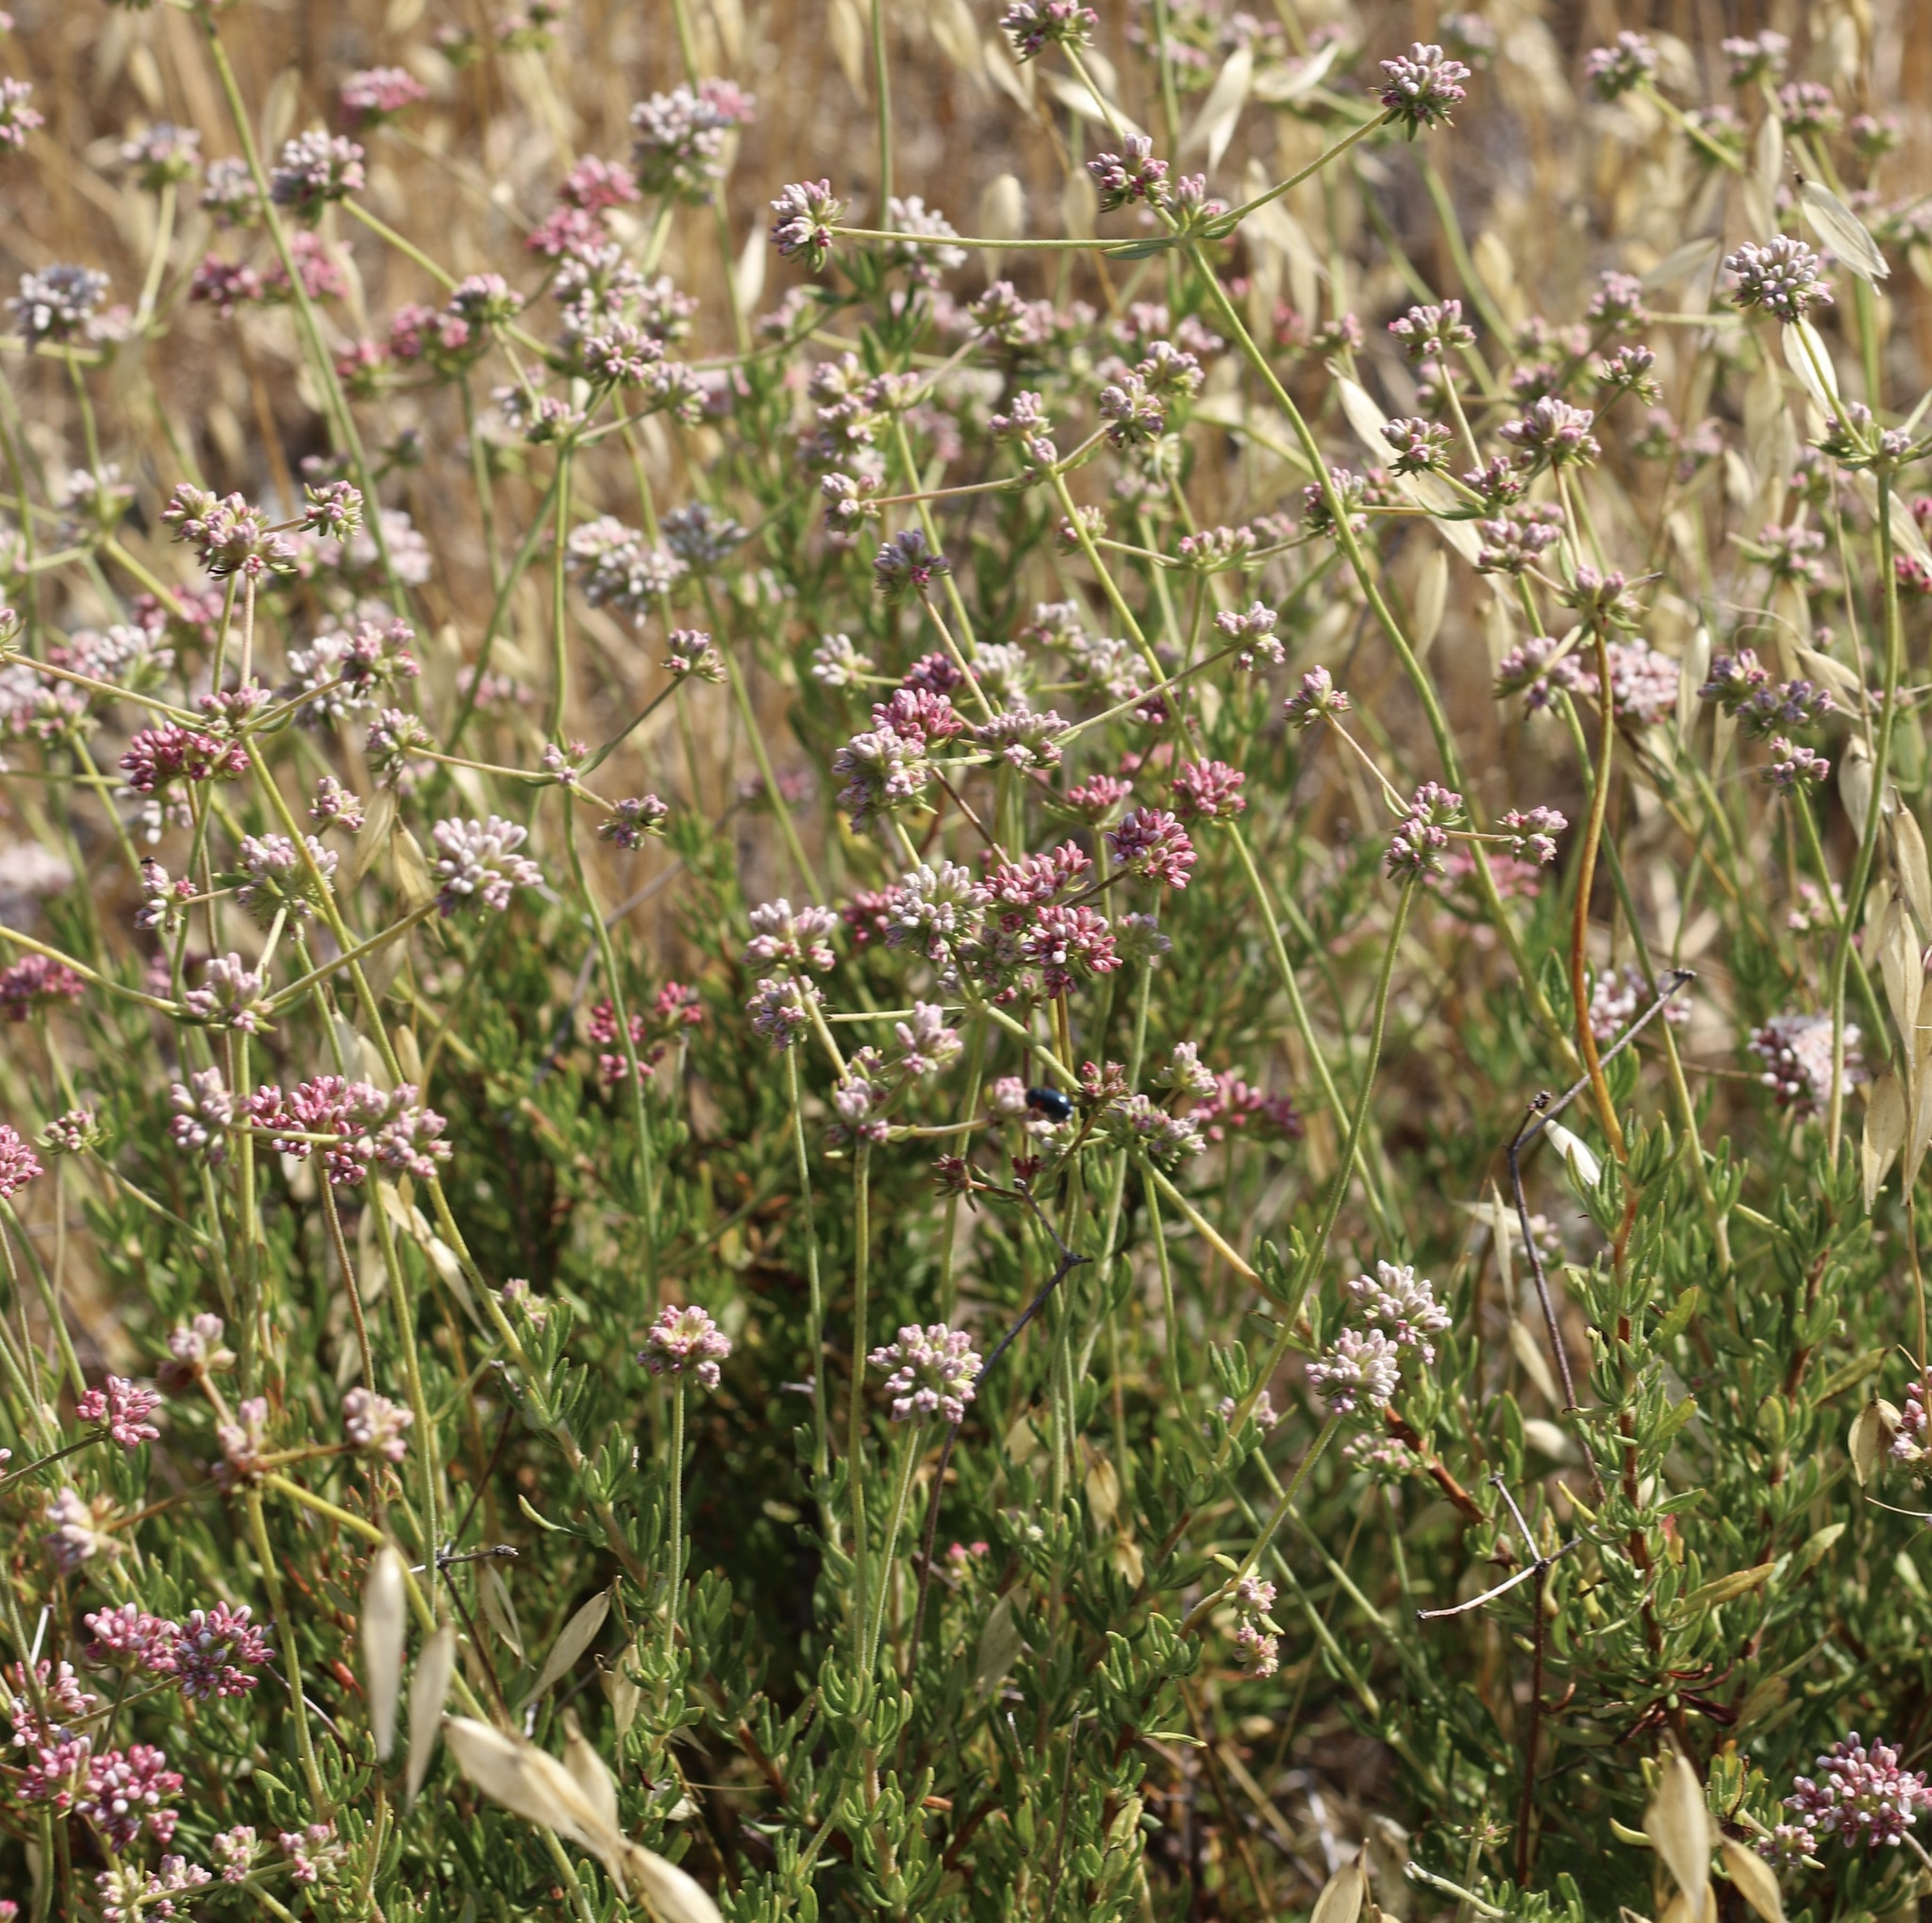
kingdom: Plantae
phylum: Tracheophyta
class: Magnoliopsida
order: Caryophyllales
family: Polygonaceae
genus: Eriogonum
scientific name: Eriogonum fasciculatum
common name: California wild buckwheat
